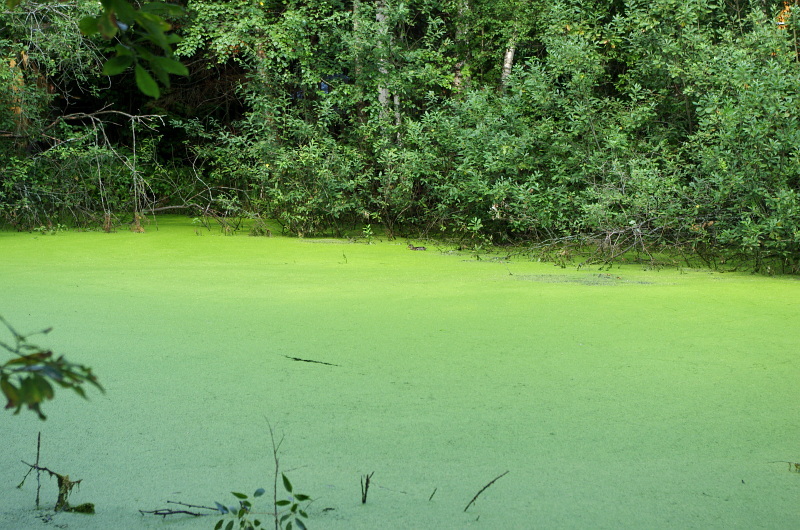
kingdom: Plantae
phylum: Tracheophyta
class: Liliopsida
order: Alismatales
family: Araceae
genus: Lemna
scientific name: Lemna minor
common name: Common duckweed
